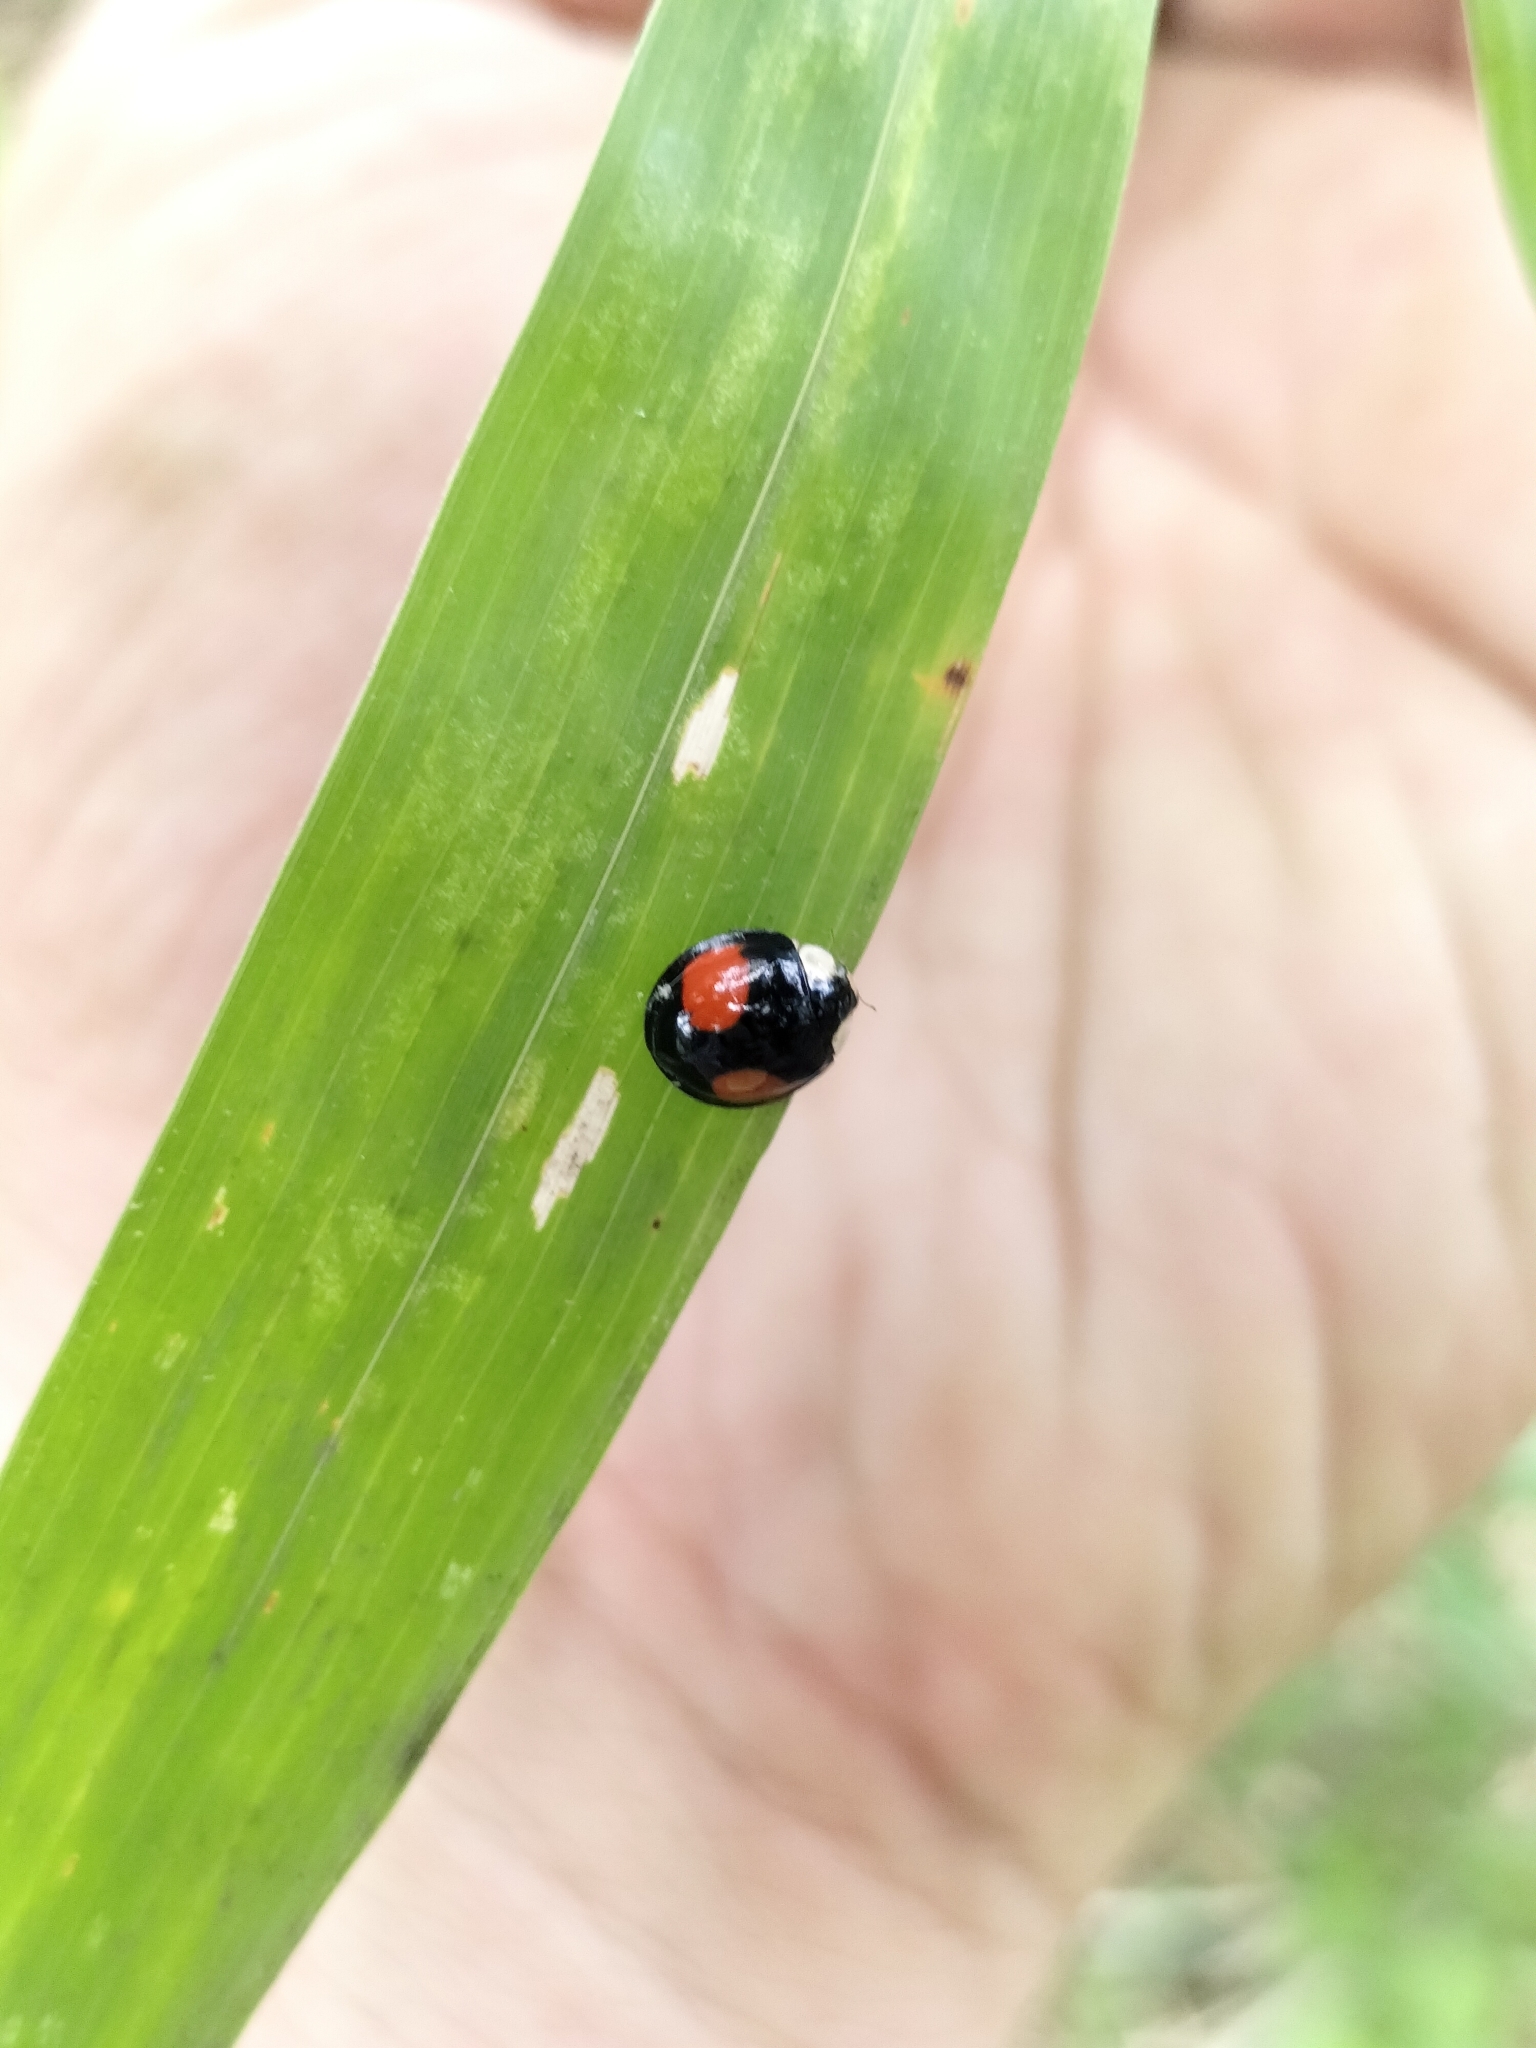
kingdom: Animalia
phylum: Arthropoda
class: Insecta
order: Coleoptera
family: Coccinellidae
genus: Coelophora
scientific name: Coelophora saucia
